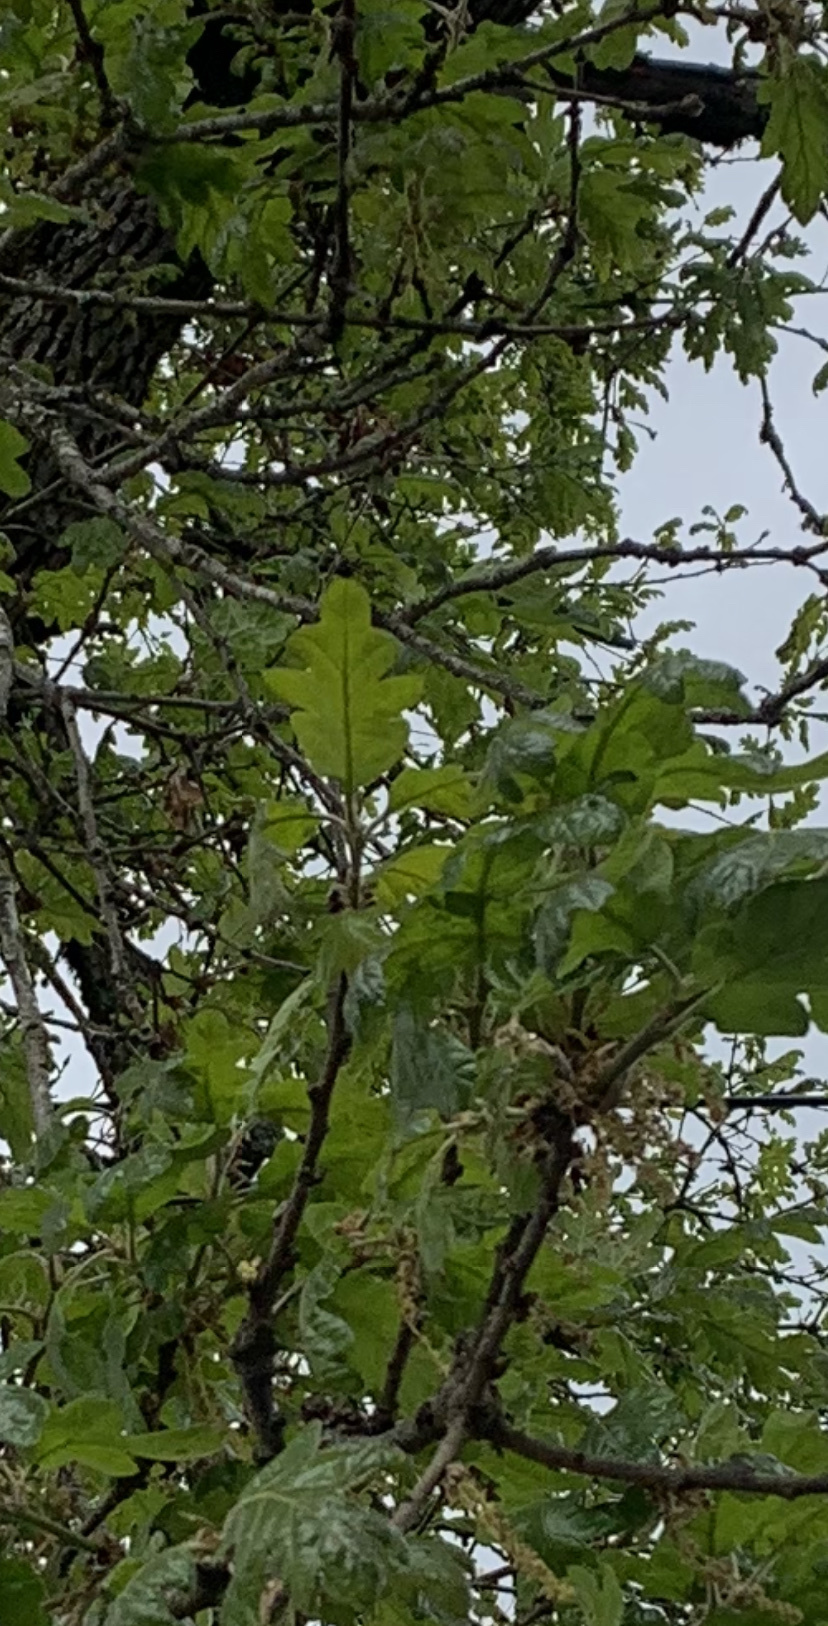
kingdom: Plantae
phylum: Tracheophyta
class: Magnoliopsida
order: Fagales
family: Fagaceae
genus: Quercus
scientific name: Quercus garryana
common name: Garry oak
